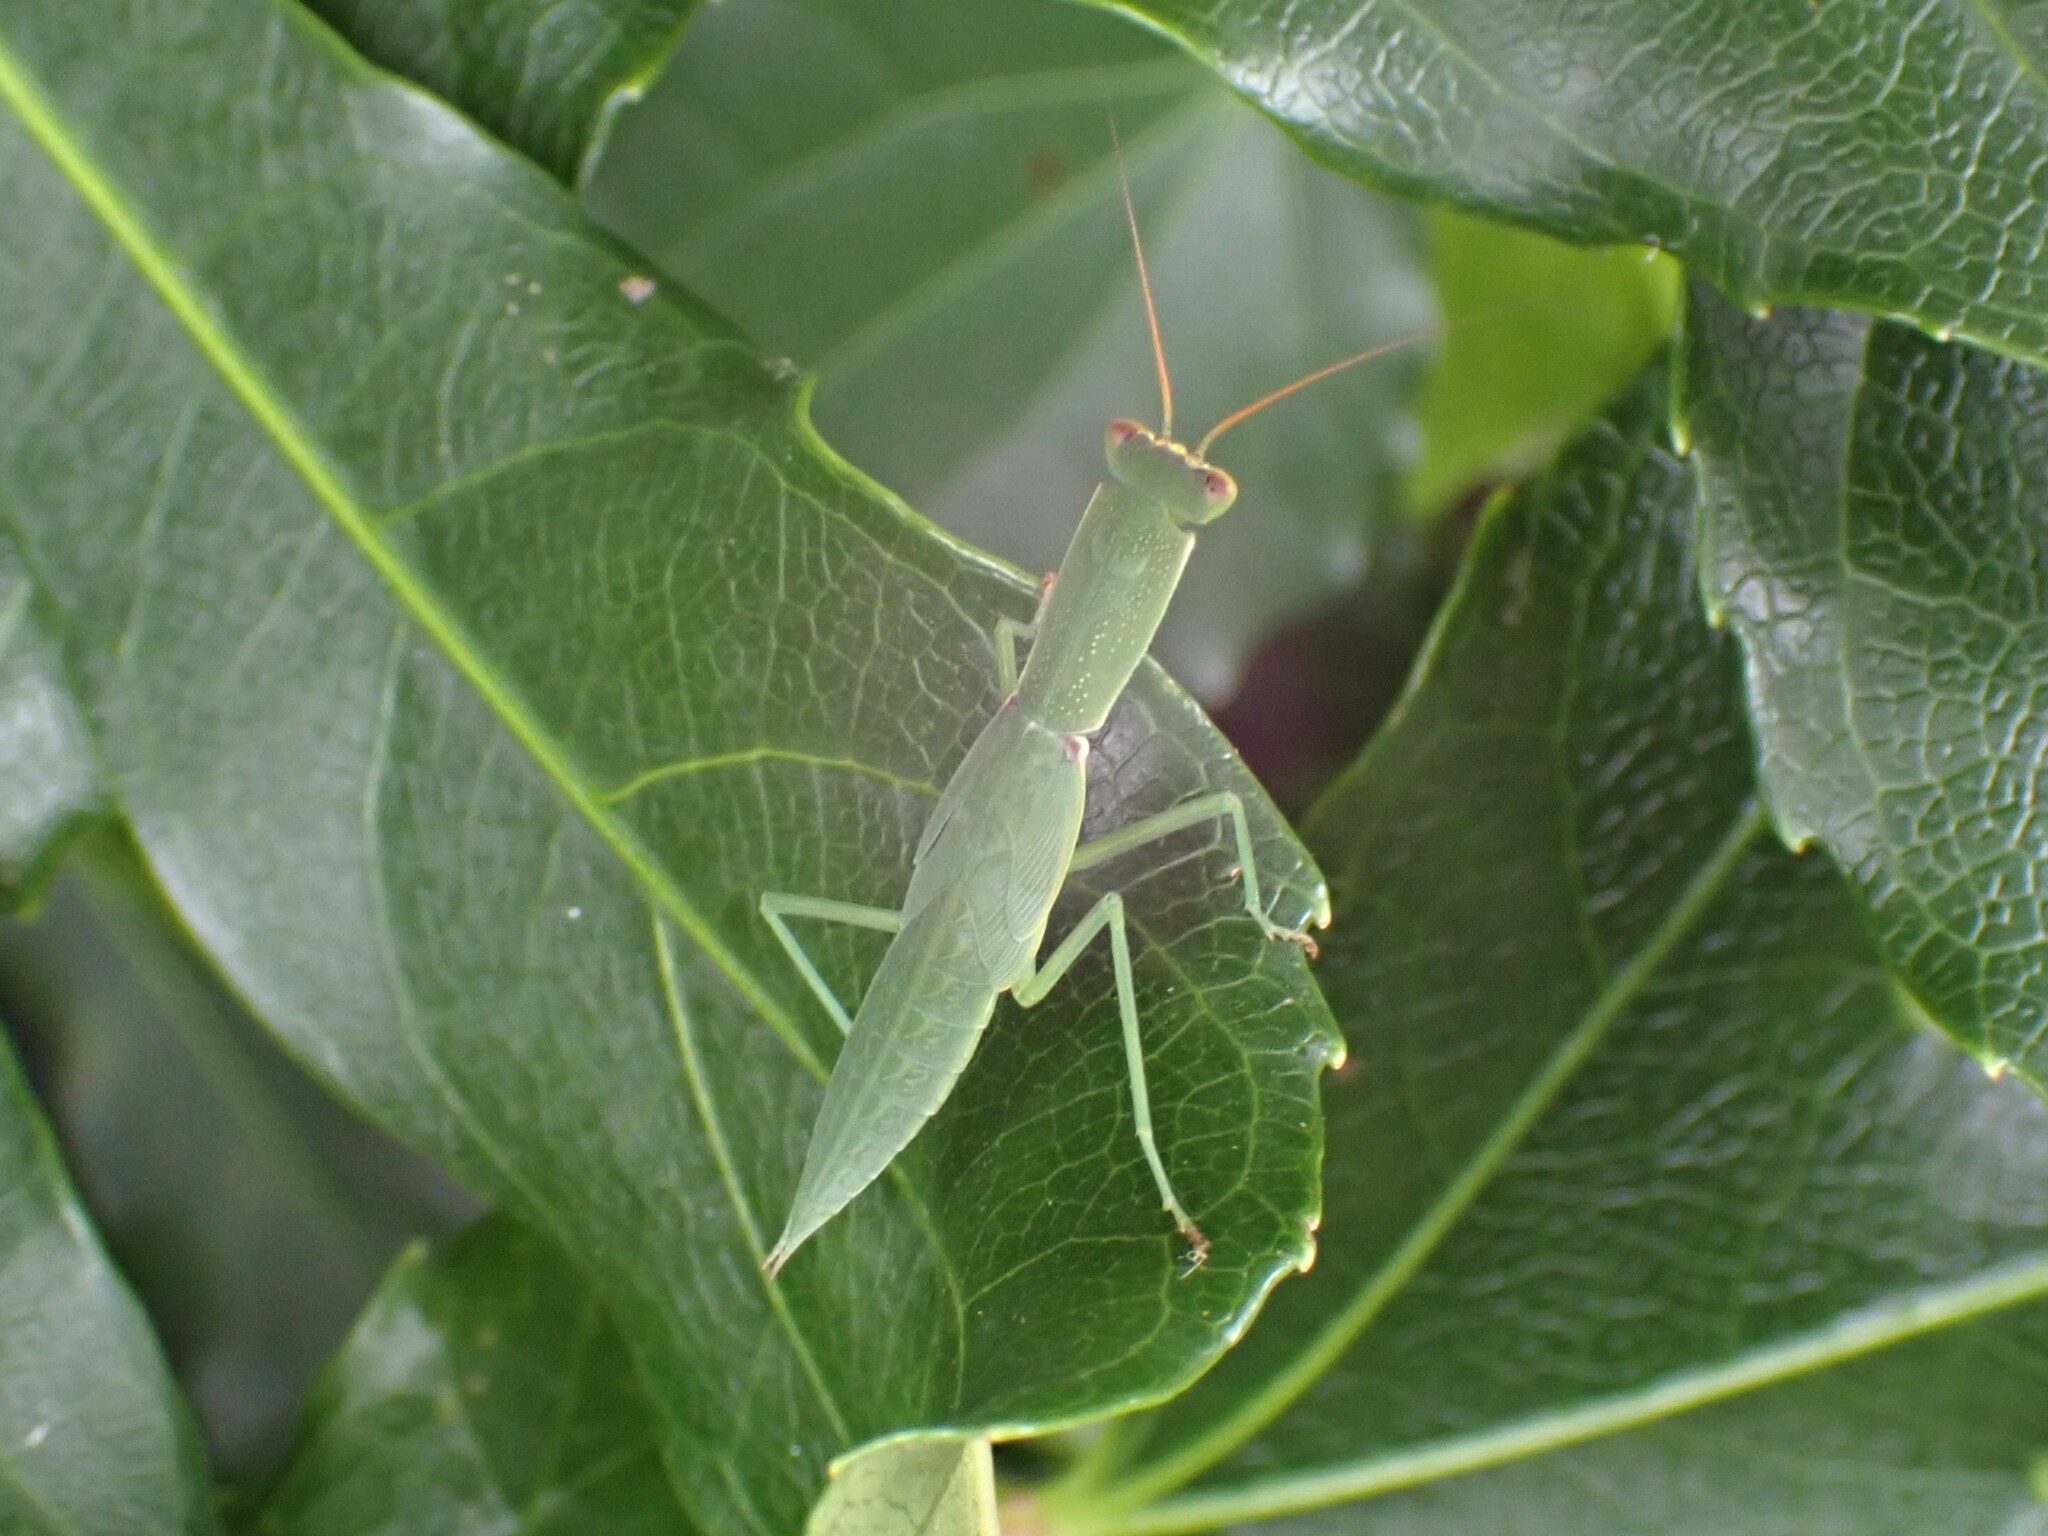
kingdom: Animalia
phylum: Arthropoda
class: Insecta
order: Mantodea
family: Mantidae
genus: Orthodera
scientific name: Orthodera novaezealandiae
